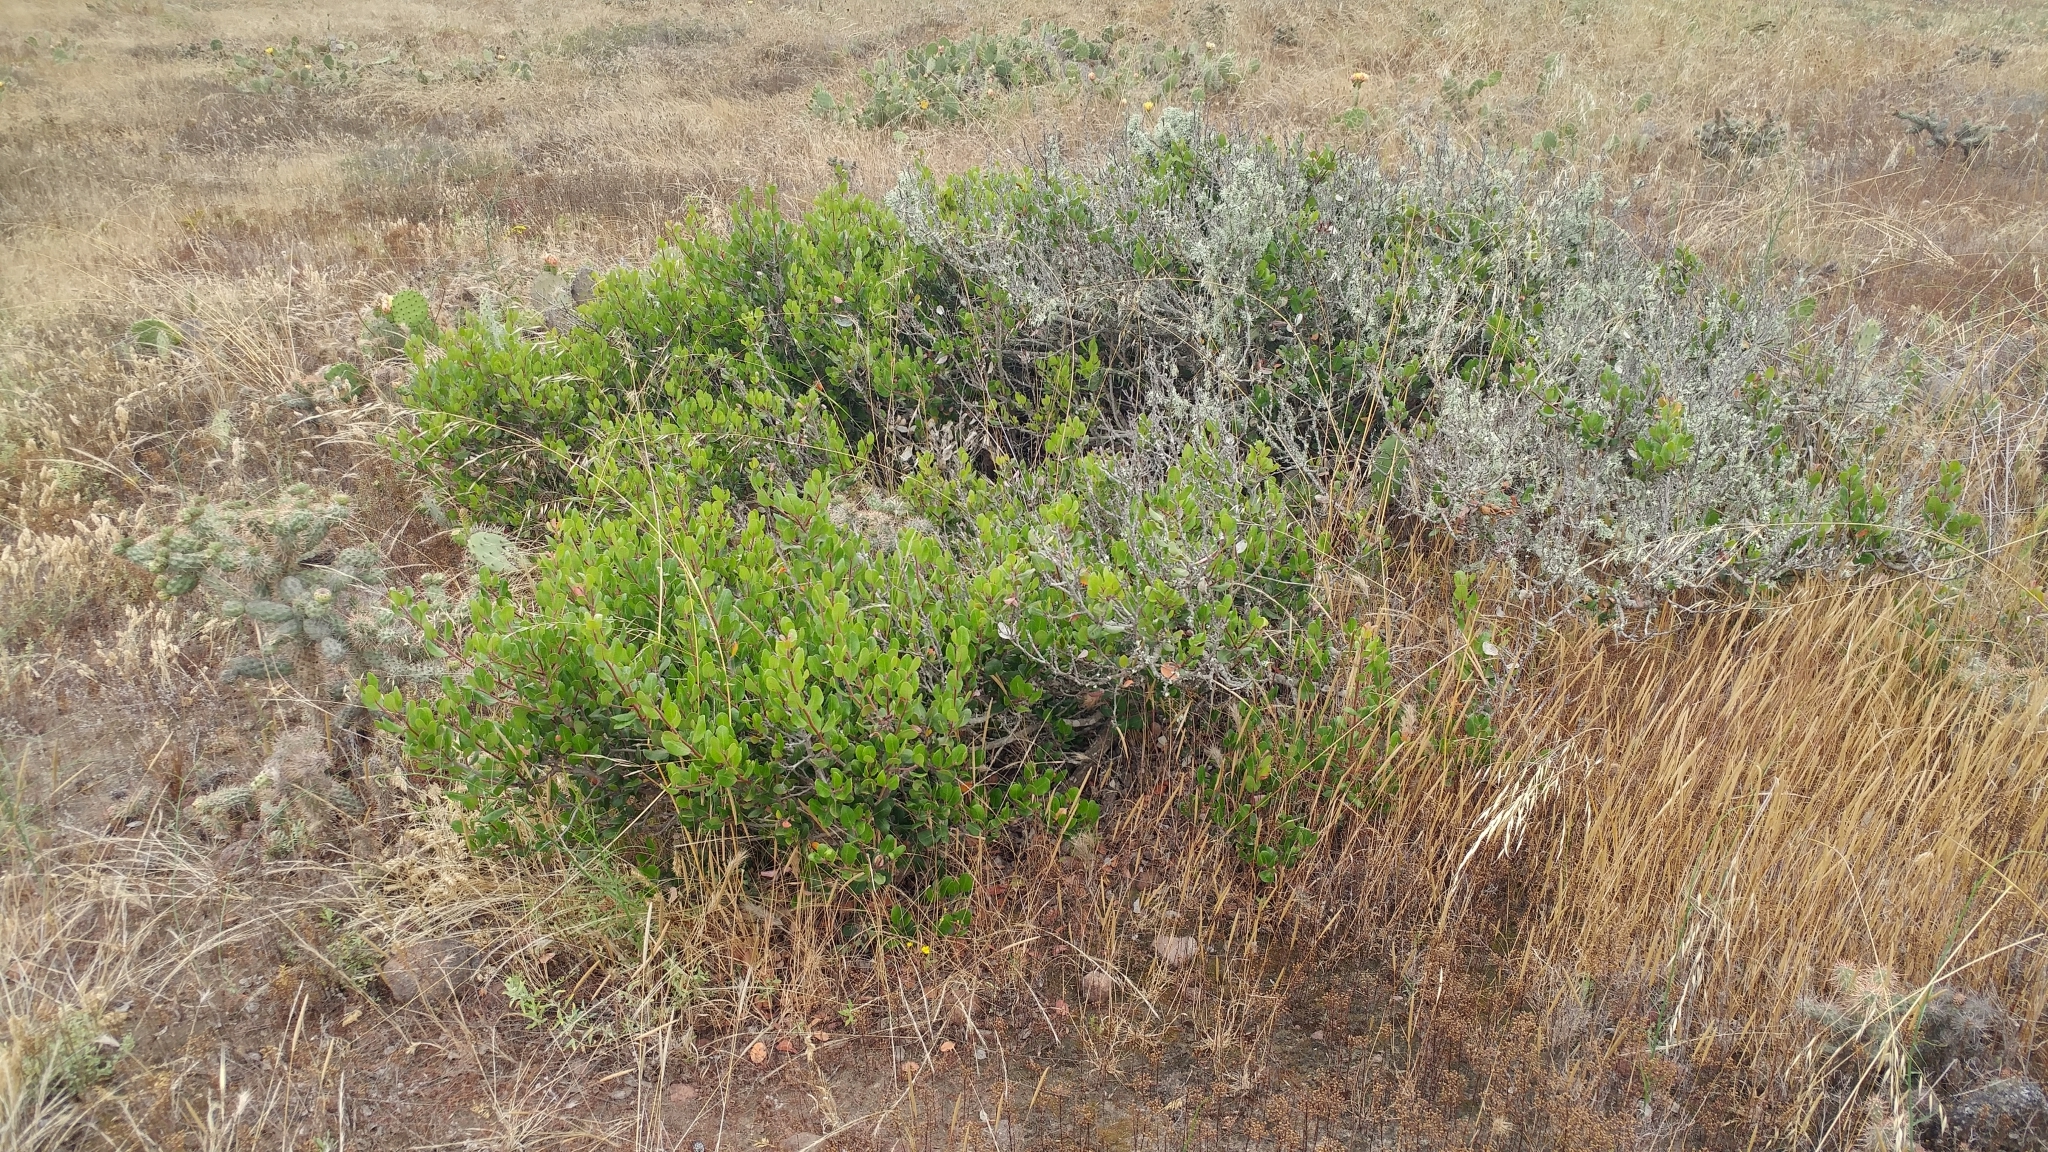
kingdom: Plantae
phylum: Tracheophyta
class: Magnoliopsida
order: Sapindales
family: Anacardiaceae
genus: Rhus
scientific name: Rhus integrifolia
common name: Lemonade sumac
